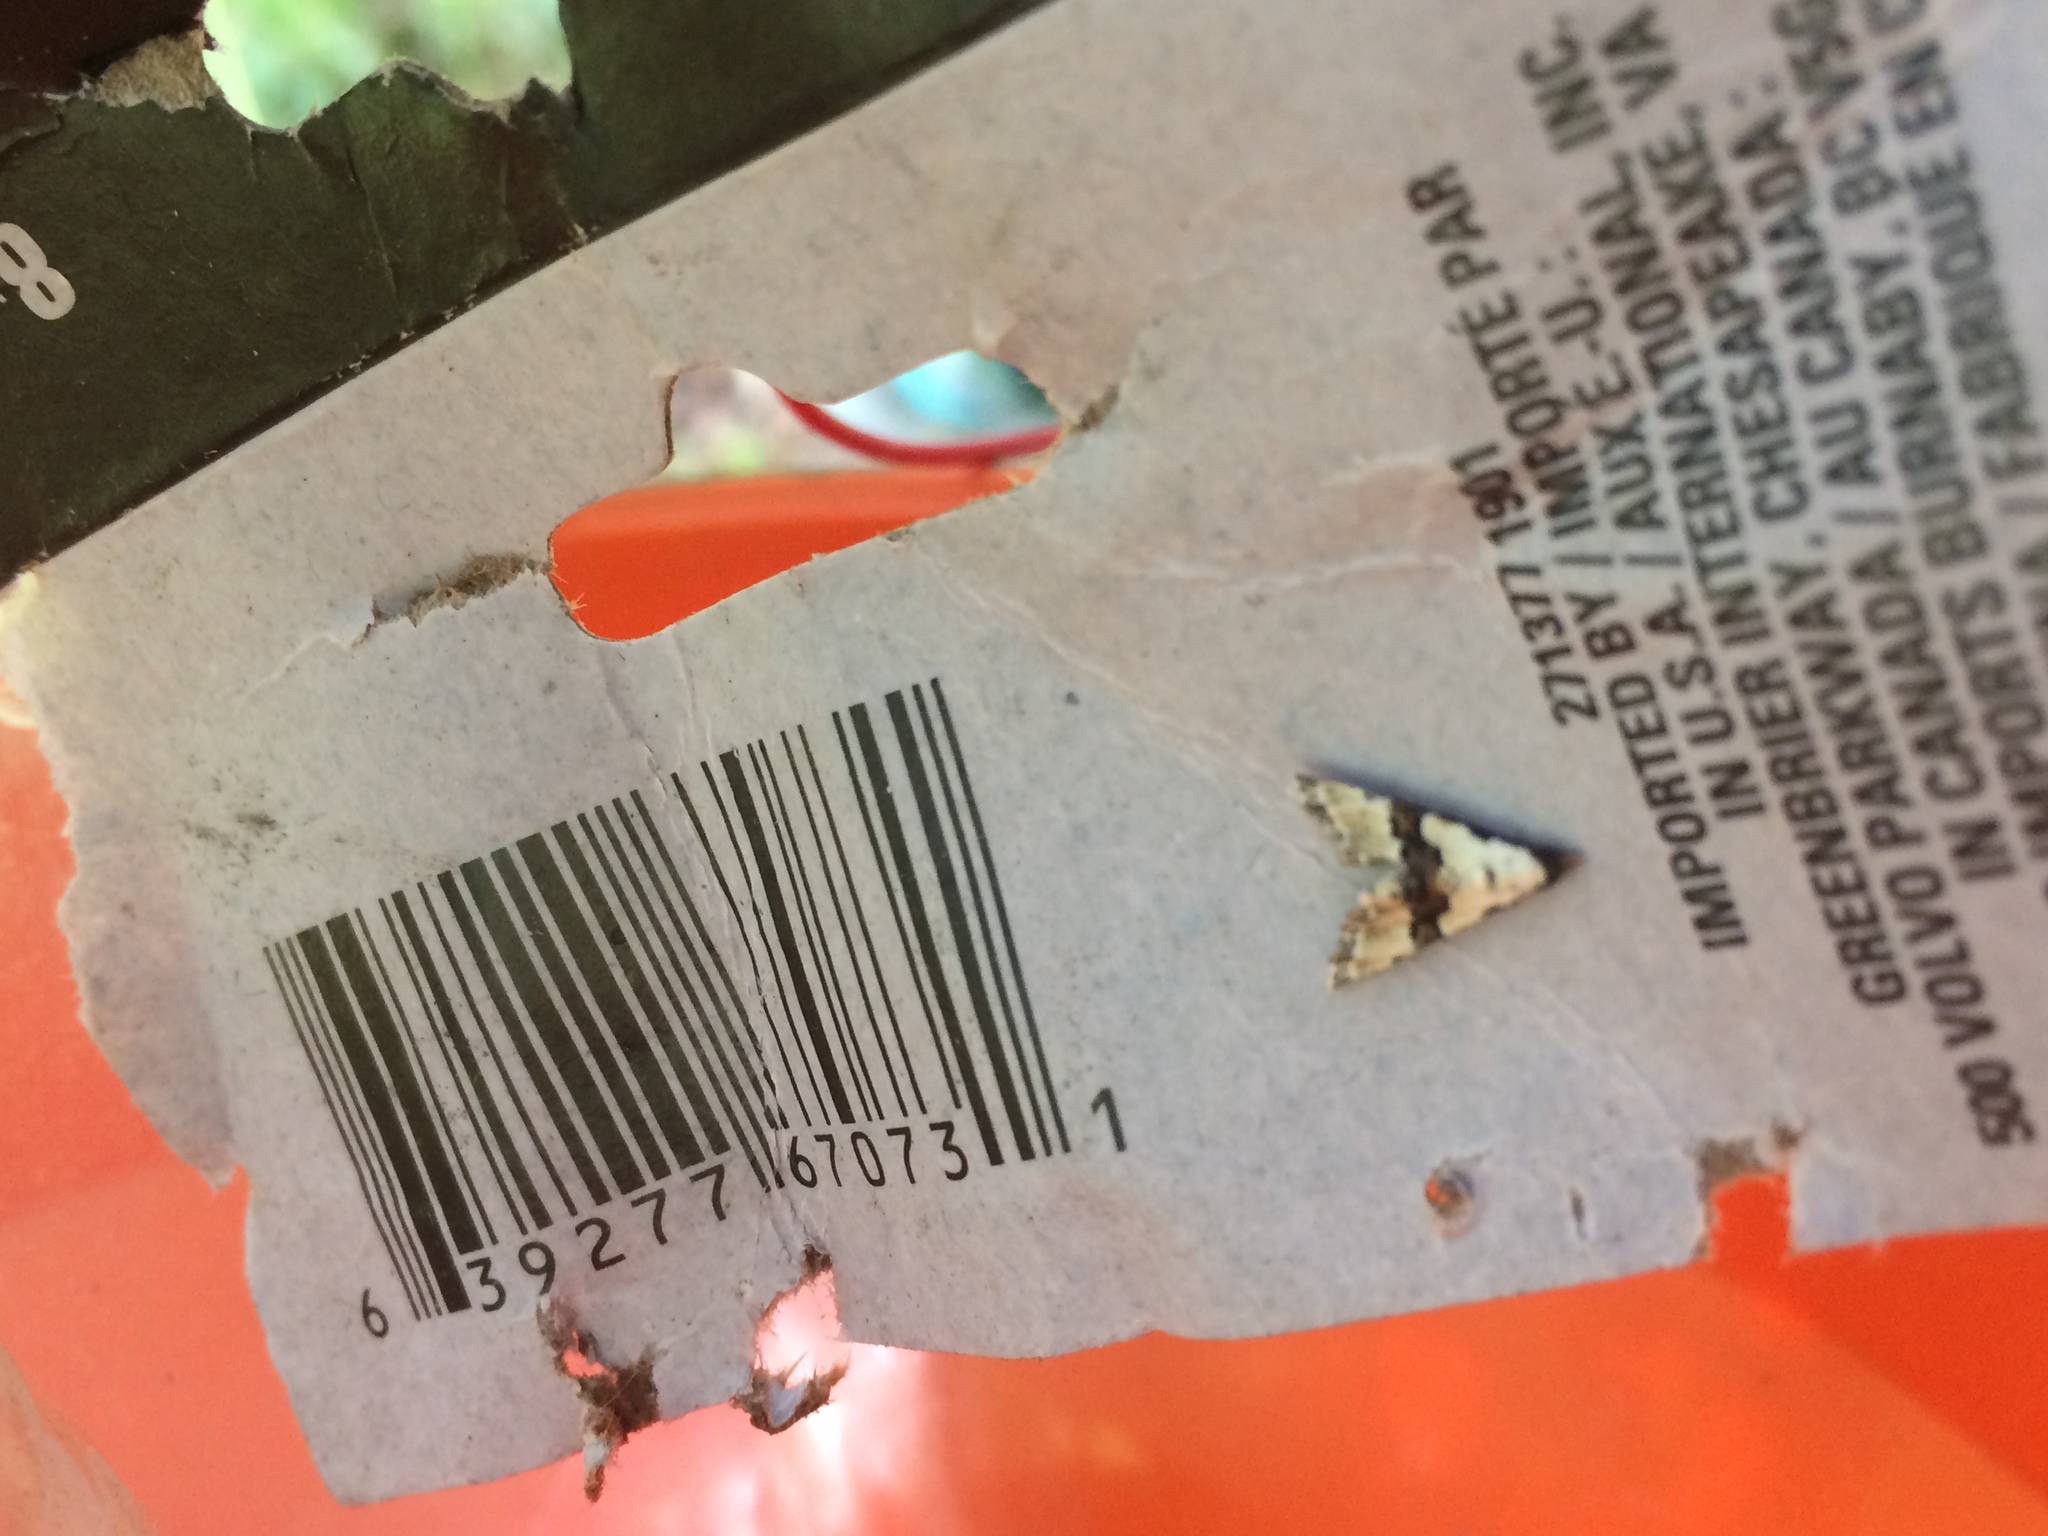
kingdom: Animalia
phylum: Arthropoda
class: Insecta
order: Lepidoptera
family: Noctuidae
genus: Nigetia
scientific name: Nigetia formosalis
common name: Thin-winged owlet
